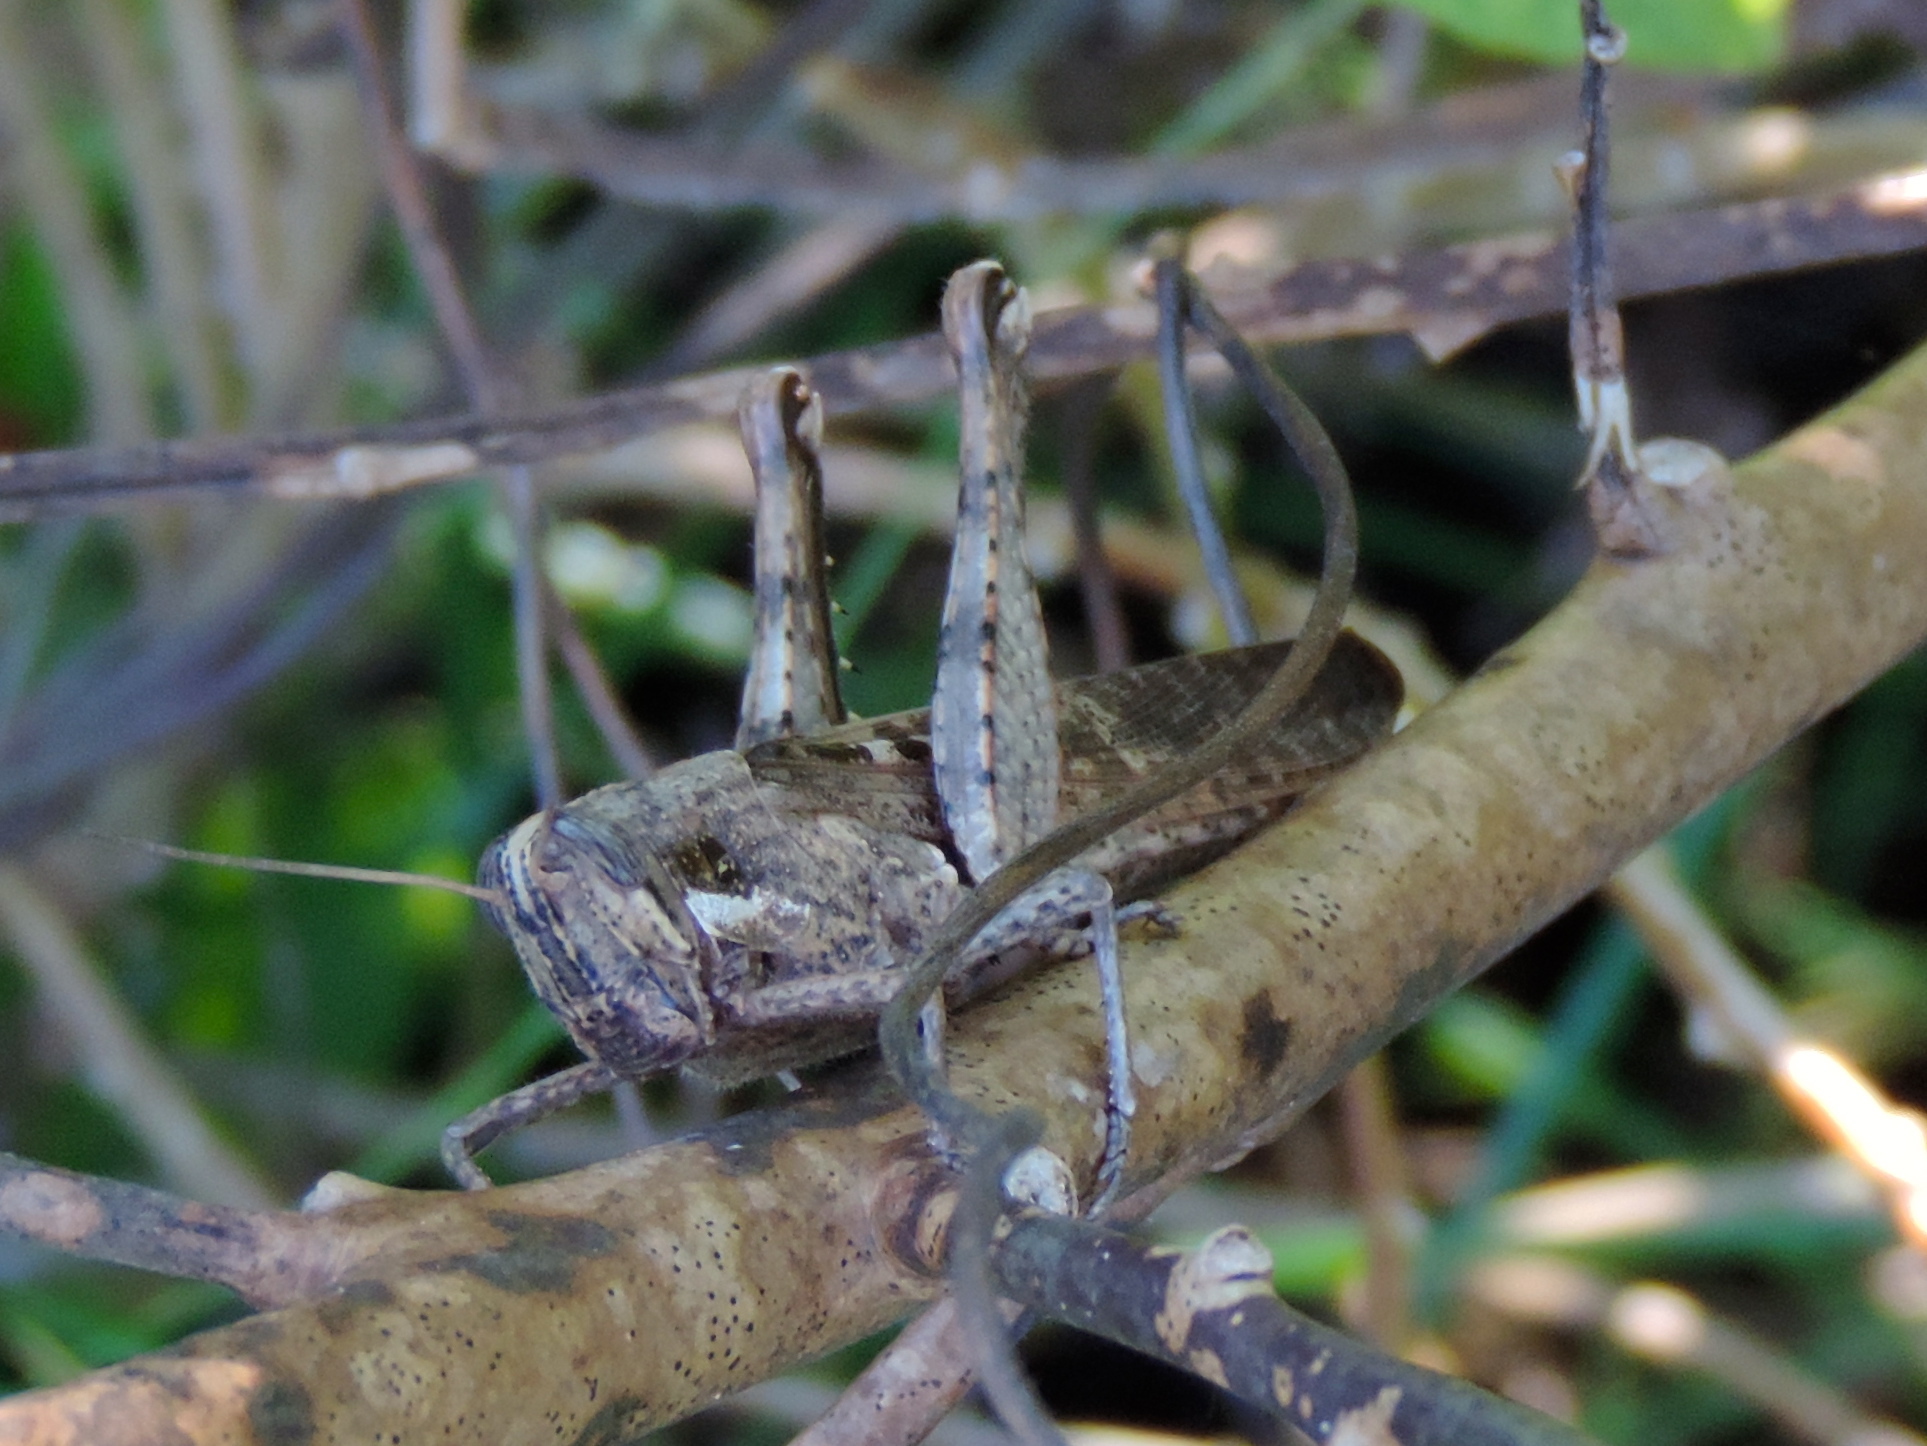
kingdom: Animalia
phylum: Arthropoda
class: Insecta
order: Orthoptera
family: Acrididae
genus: Schistocerca
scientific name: Schistocerca nitens
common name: Vagrant grasshopper
